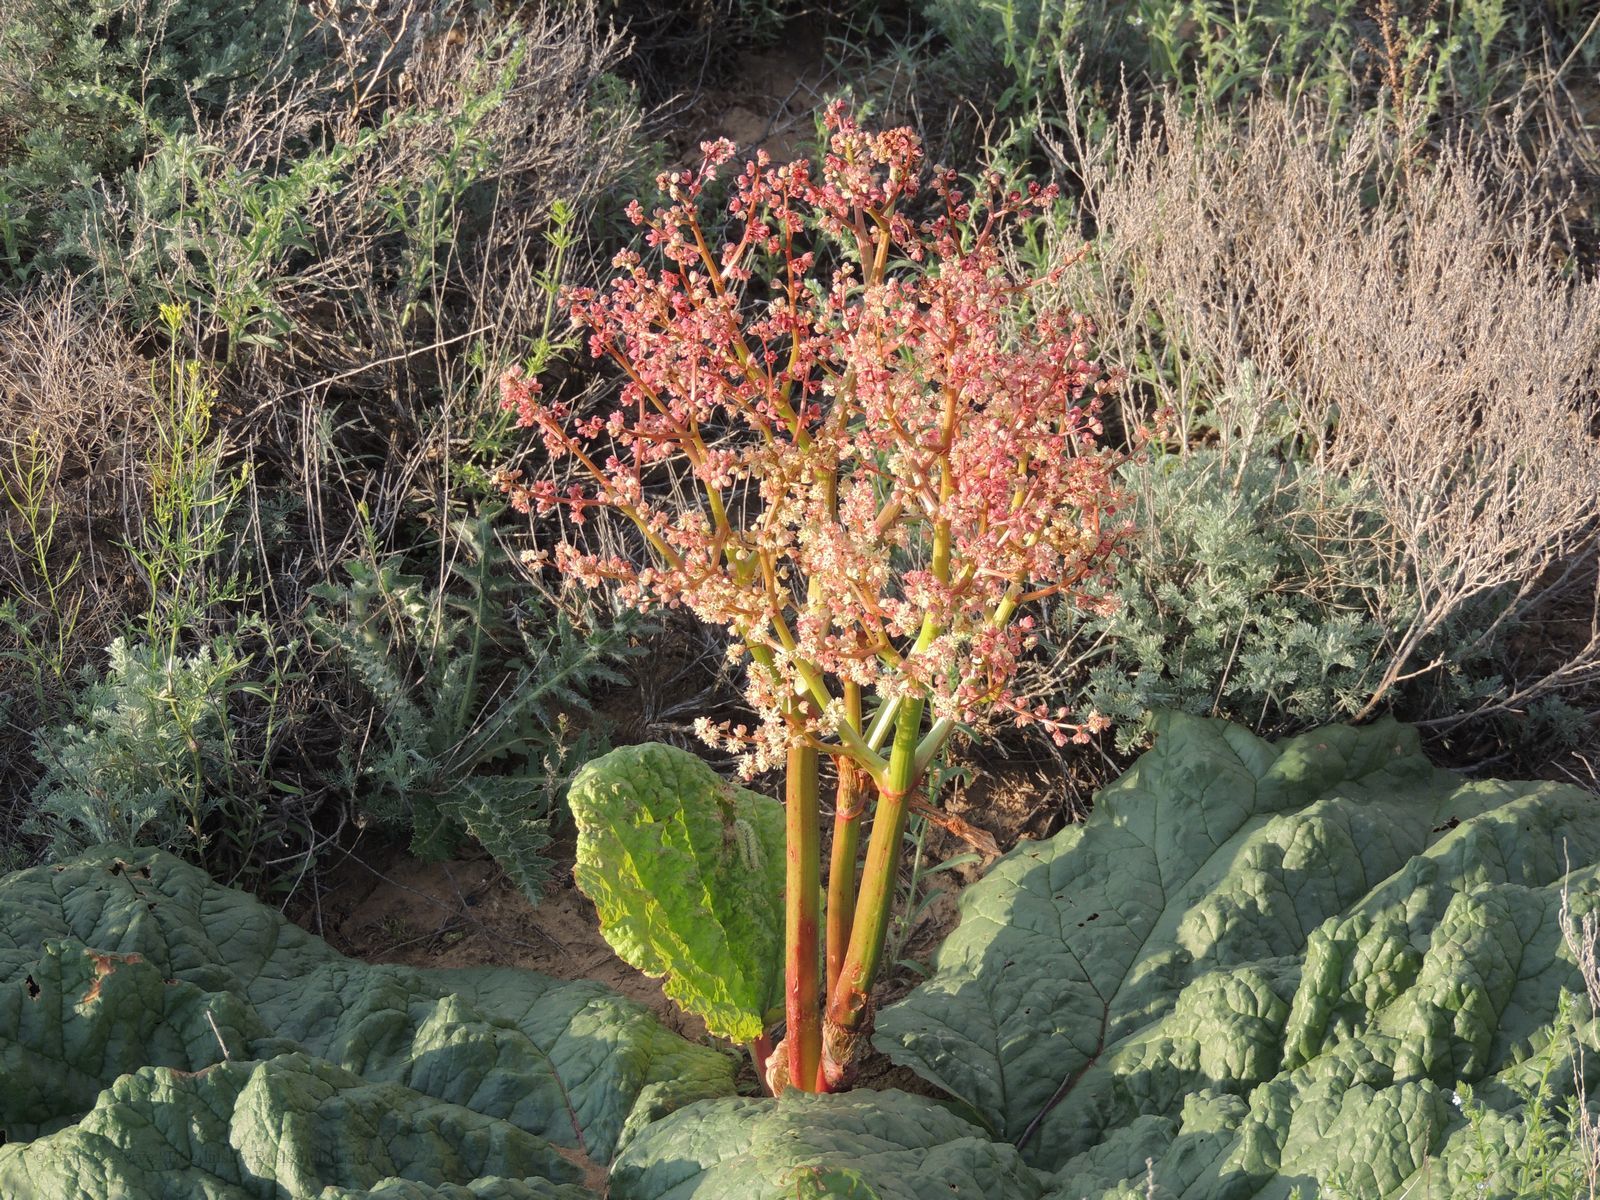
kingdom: Plantae
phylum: Tracheophyta
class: Magnoliopsida
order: Caryophyllales
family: Polygonaceae
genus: Rheum
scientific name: Rheum tataricum
